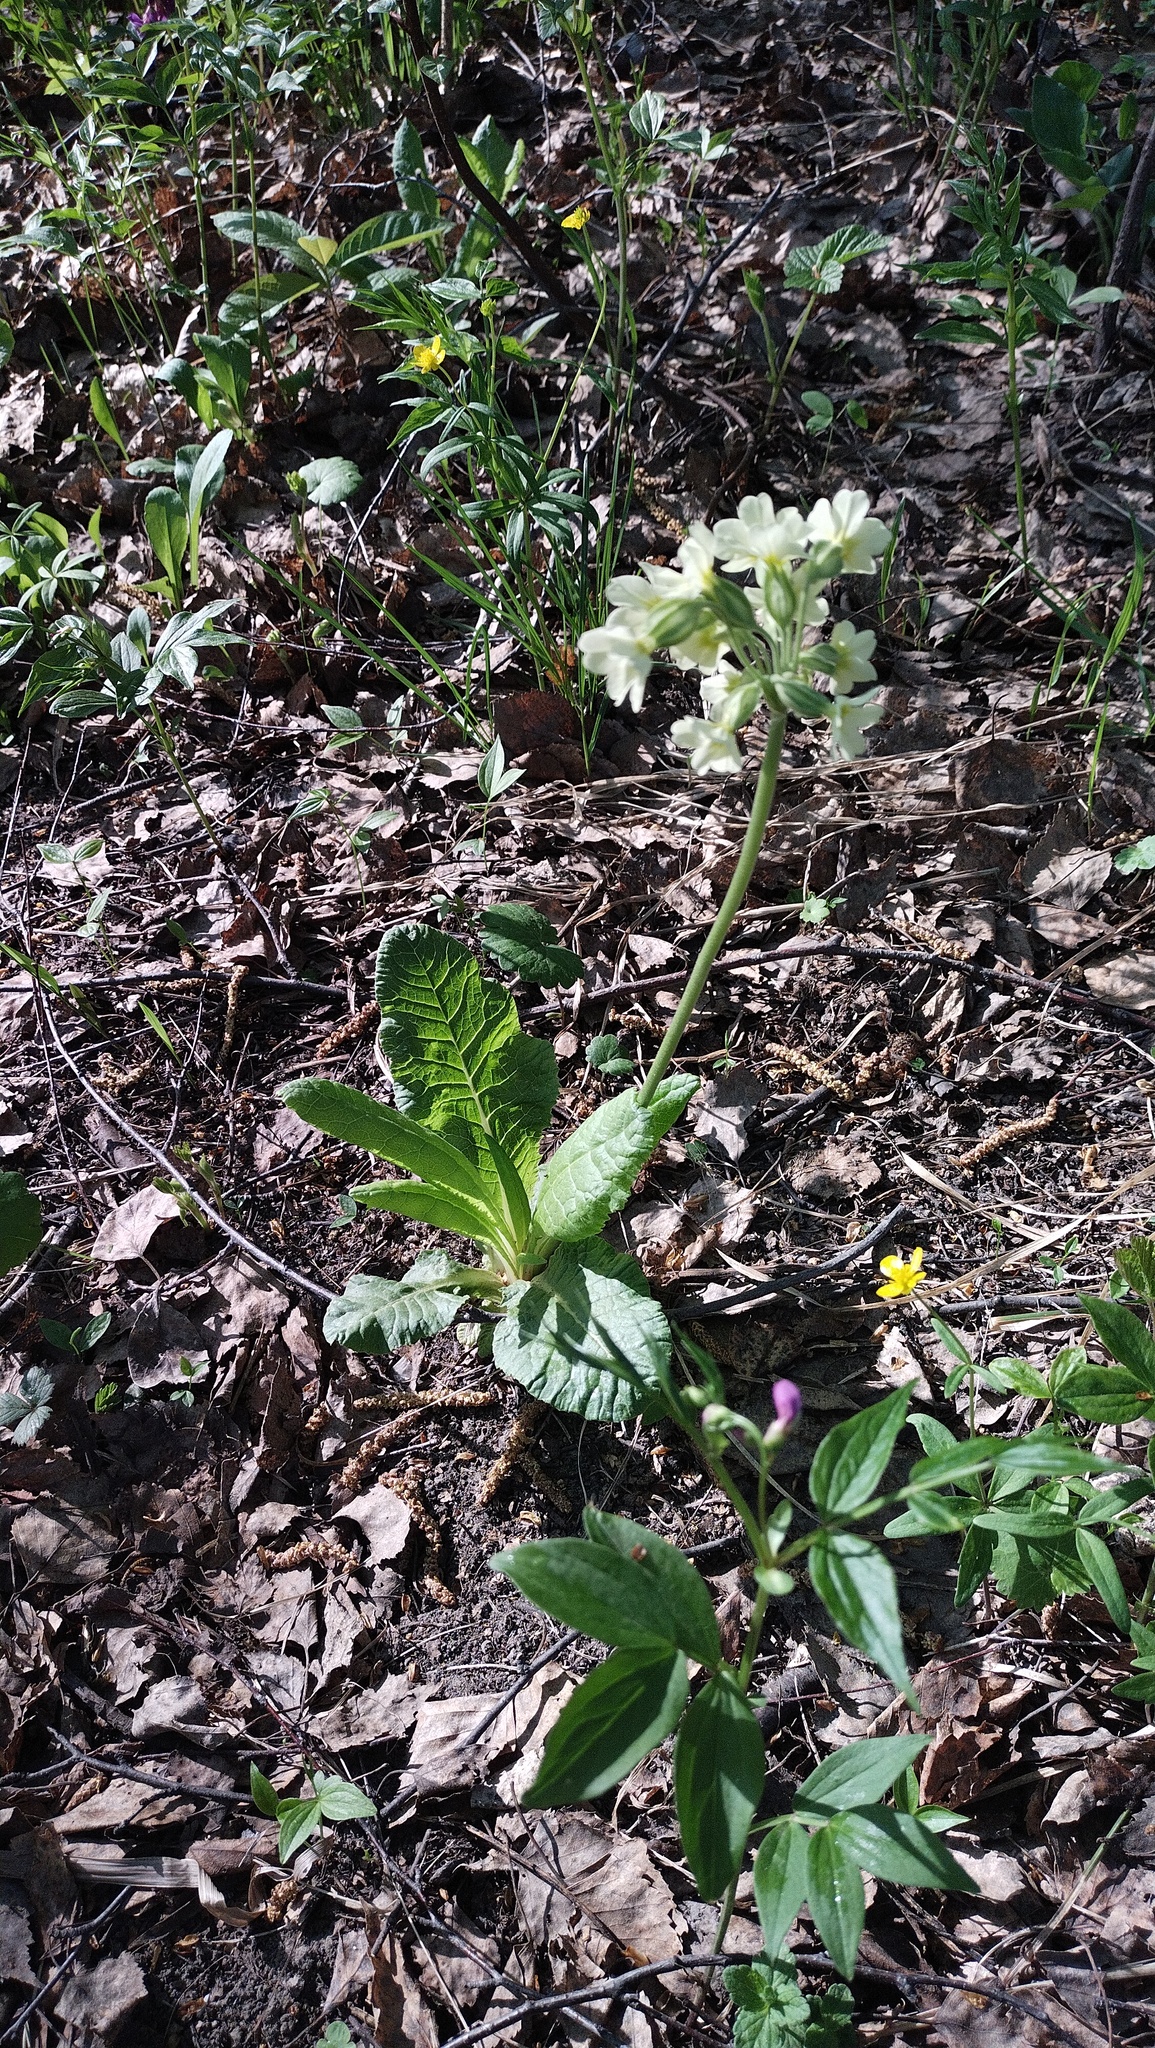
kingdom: Plantae
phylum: Tracheophyta
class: Magnoliopsida
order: Ericales
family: Primulaceae
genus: Primula
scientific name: Primula elatior
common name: Oxlip
